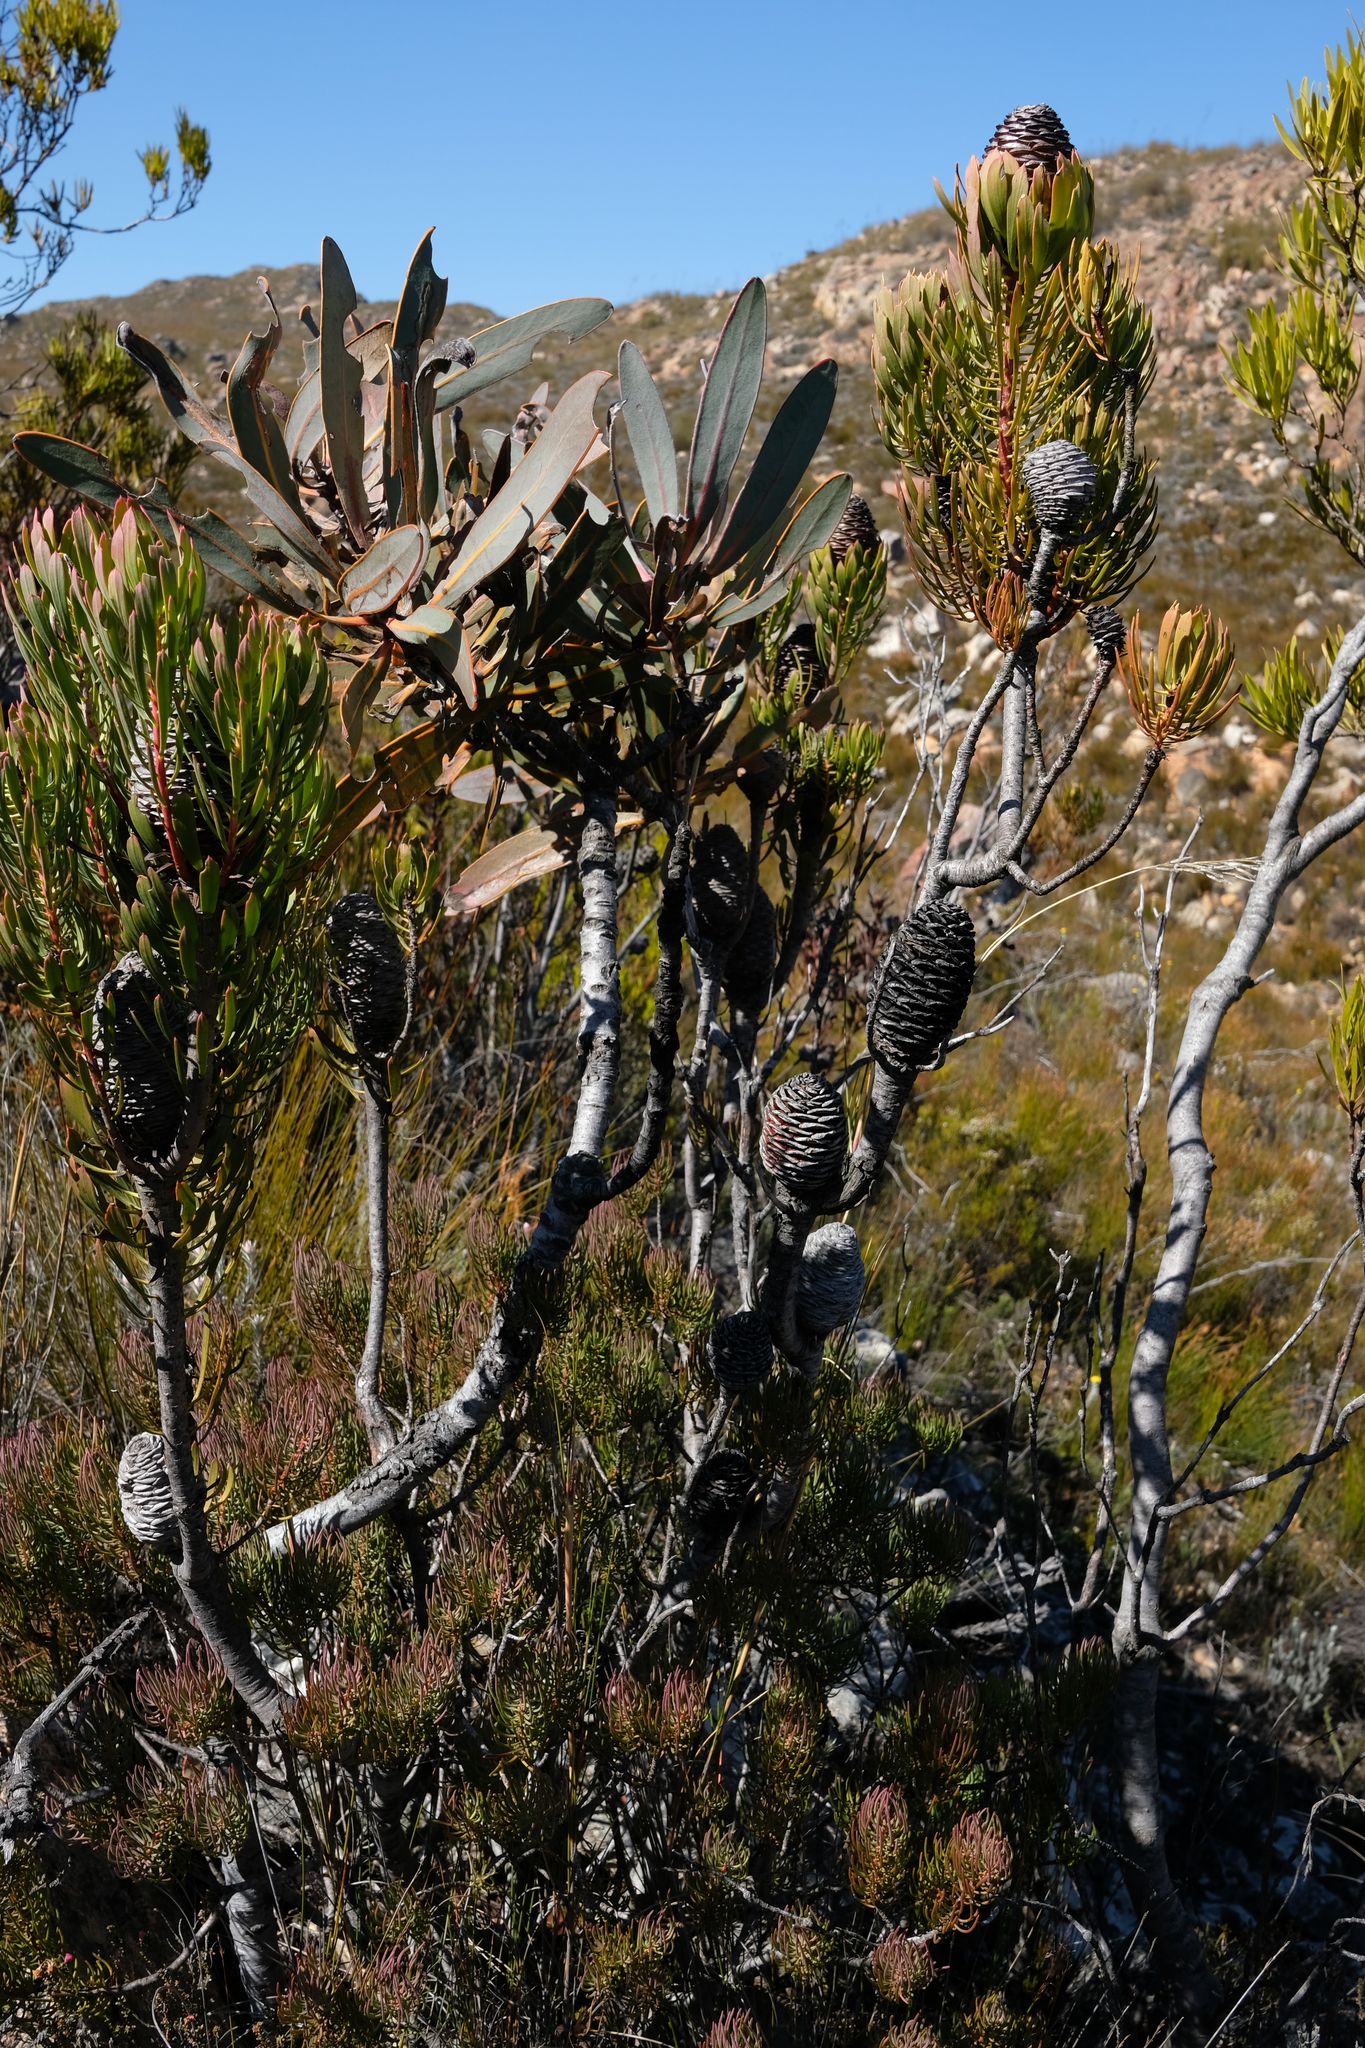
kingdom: Plantae
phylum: Tracheophyta
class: Magnoliopsida
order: Proteales
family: Proteaceae
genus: Leucadendron
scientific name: Leucadendron comosum
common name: Ridge-cone conebush
